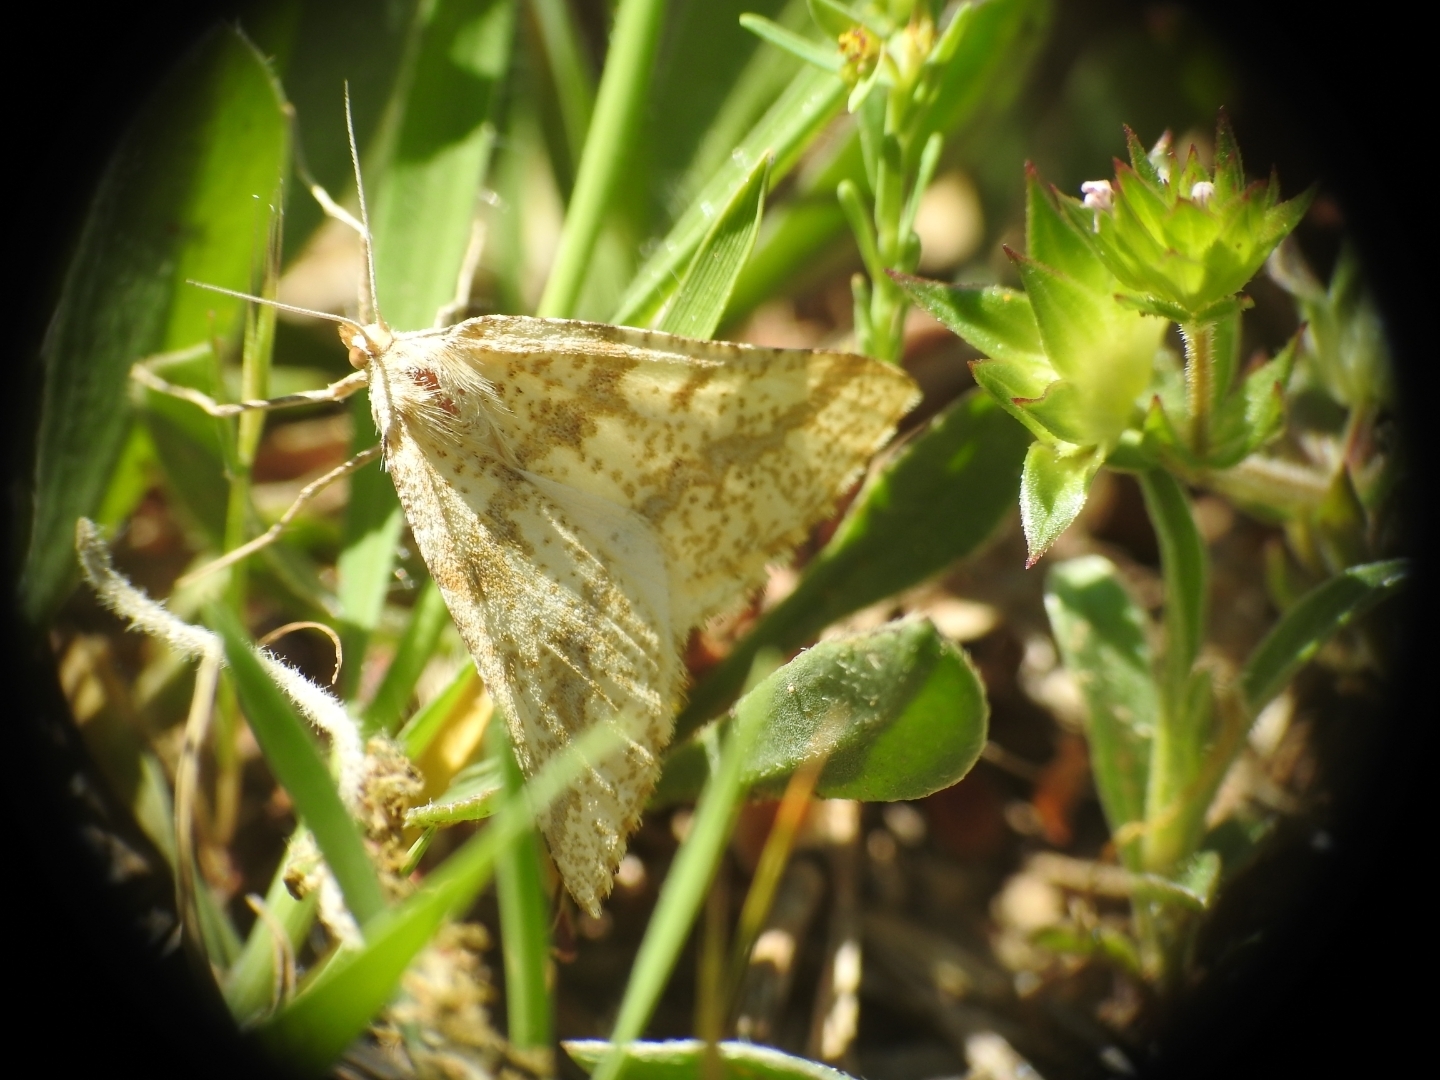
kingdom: Animalia
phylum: Arthropoda
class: Insecta
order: Lepidoptera
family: Geometridae
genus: Aspitates
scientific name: Aspitates ochrearia
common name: Yellow belle
